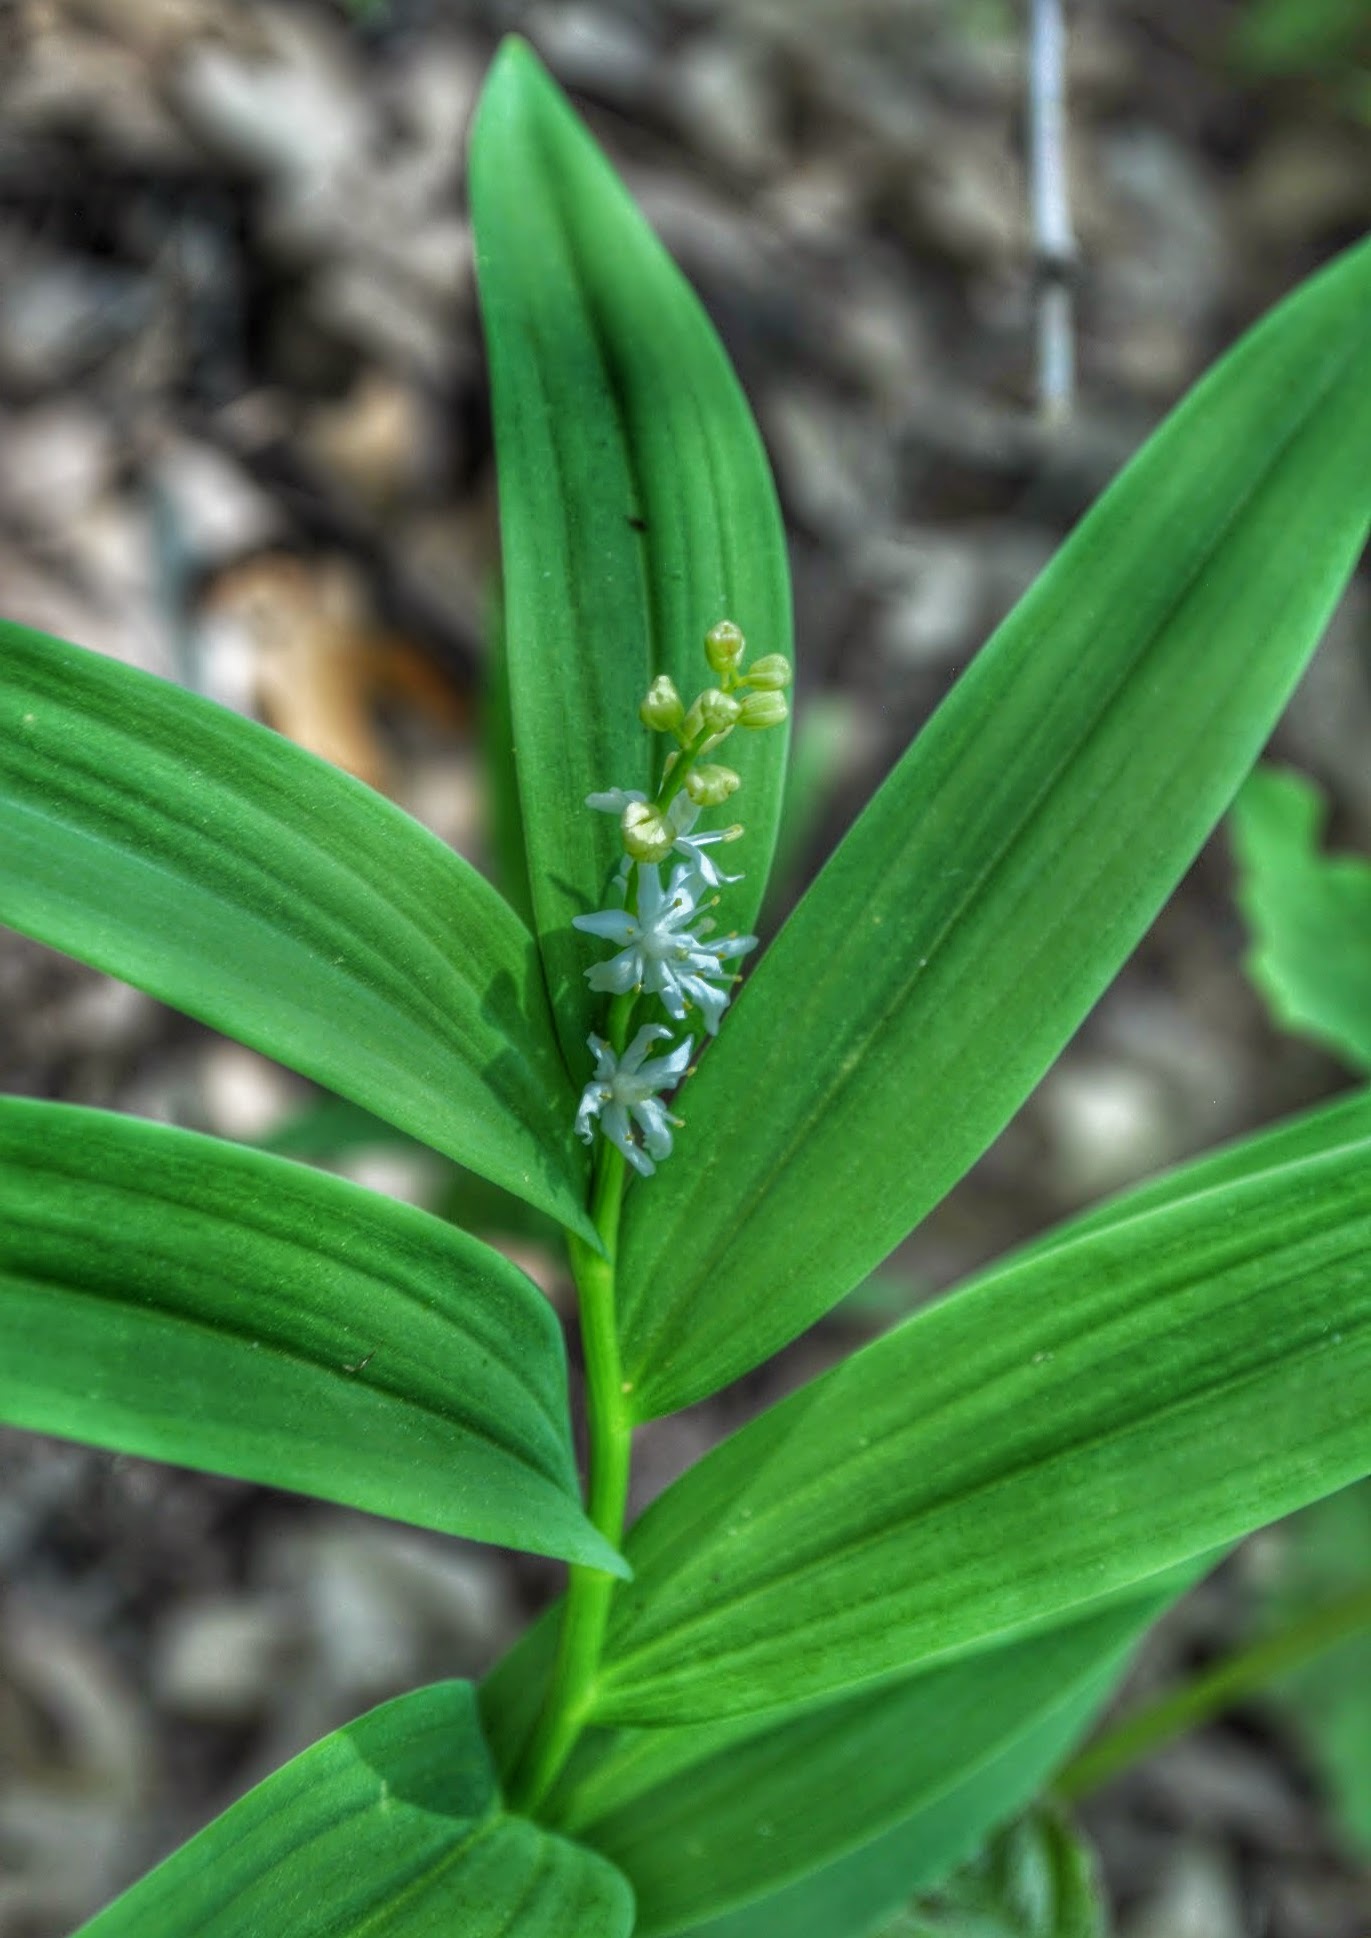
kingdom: Plantae
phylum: Tracheophyta
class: Liliopsida
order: Asparagales
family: Asparagaceae
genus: Maianthemum
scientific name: Maianthemum stellatum
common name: Little false solomon's seal
